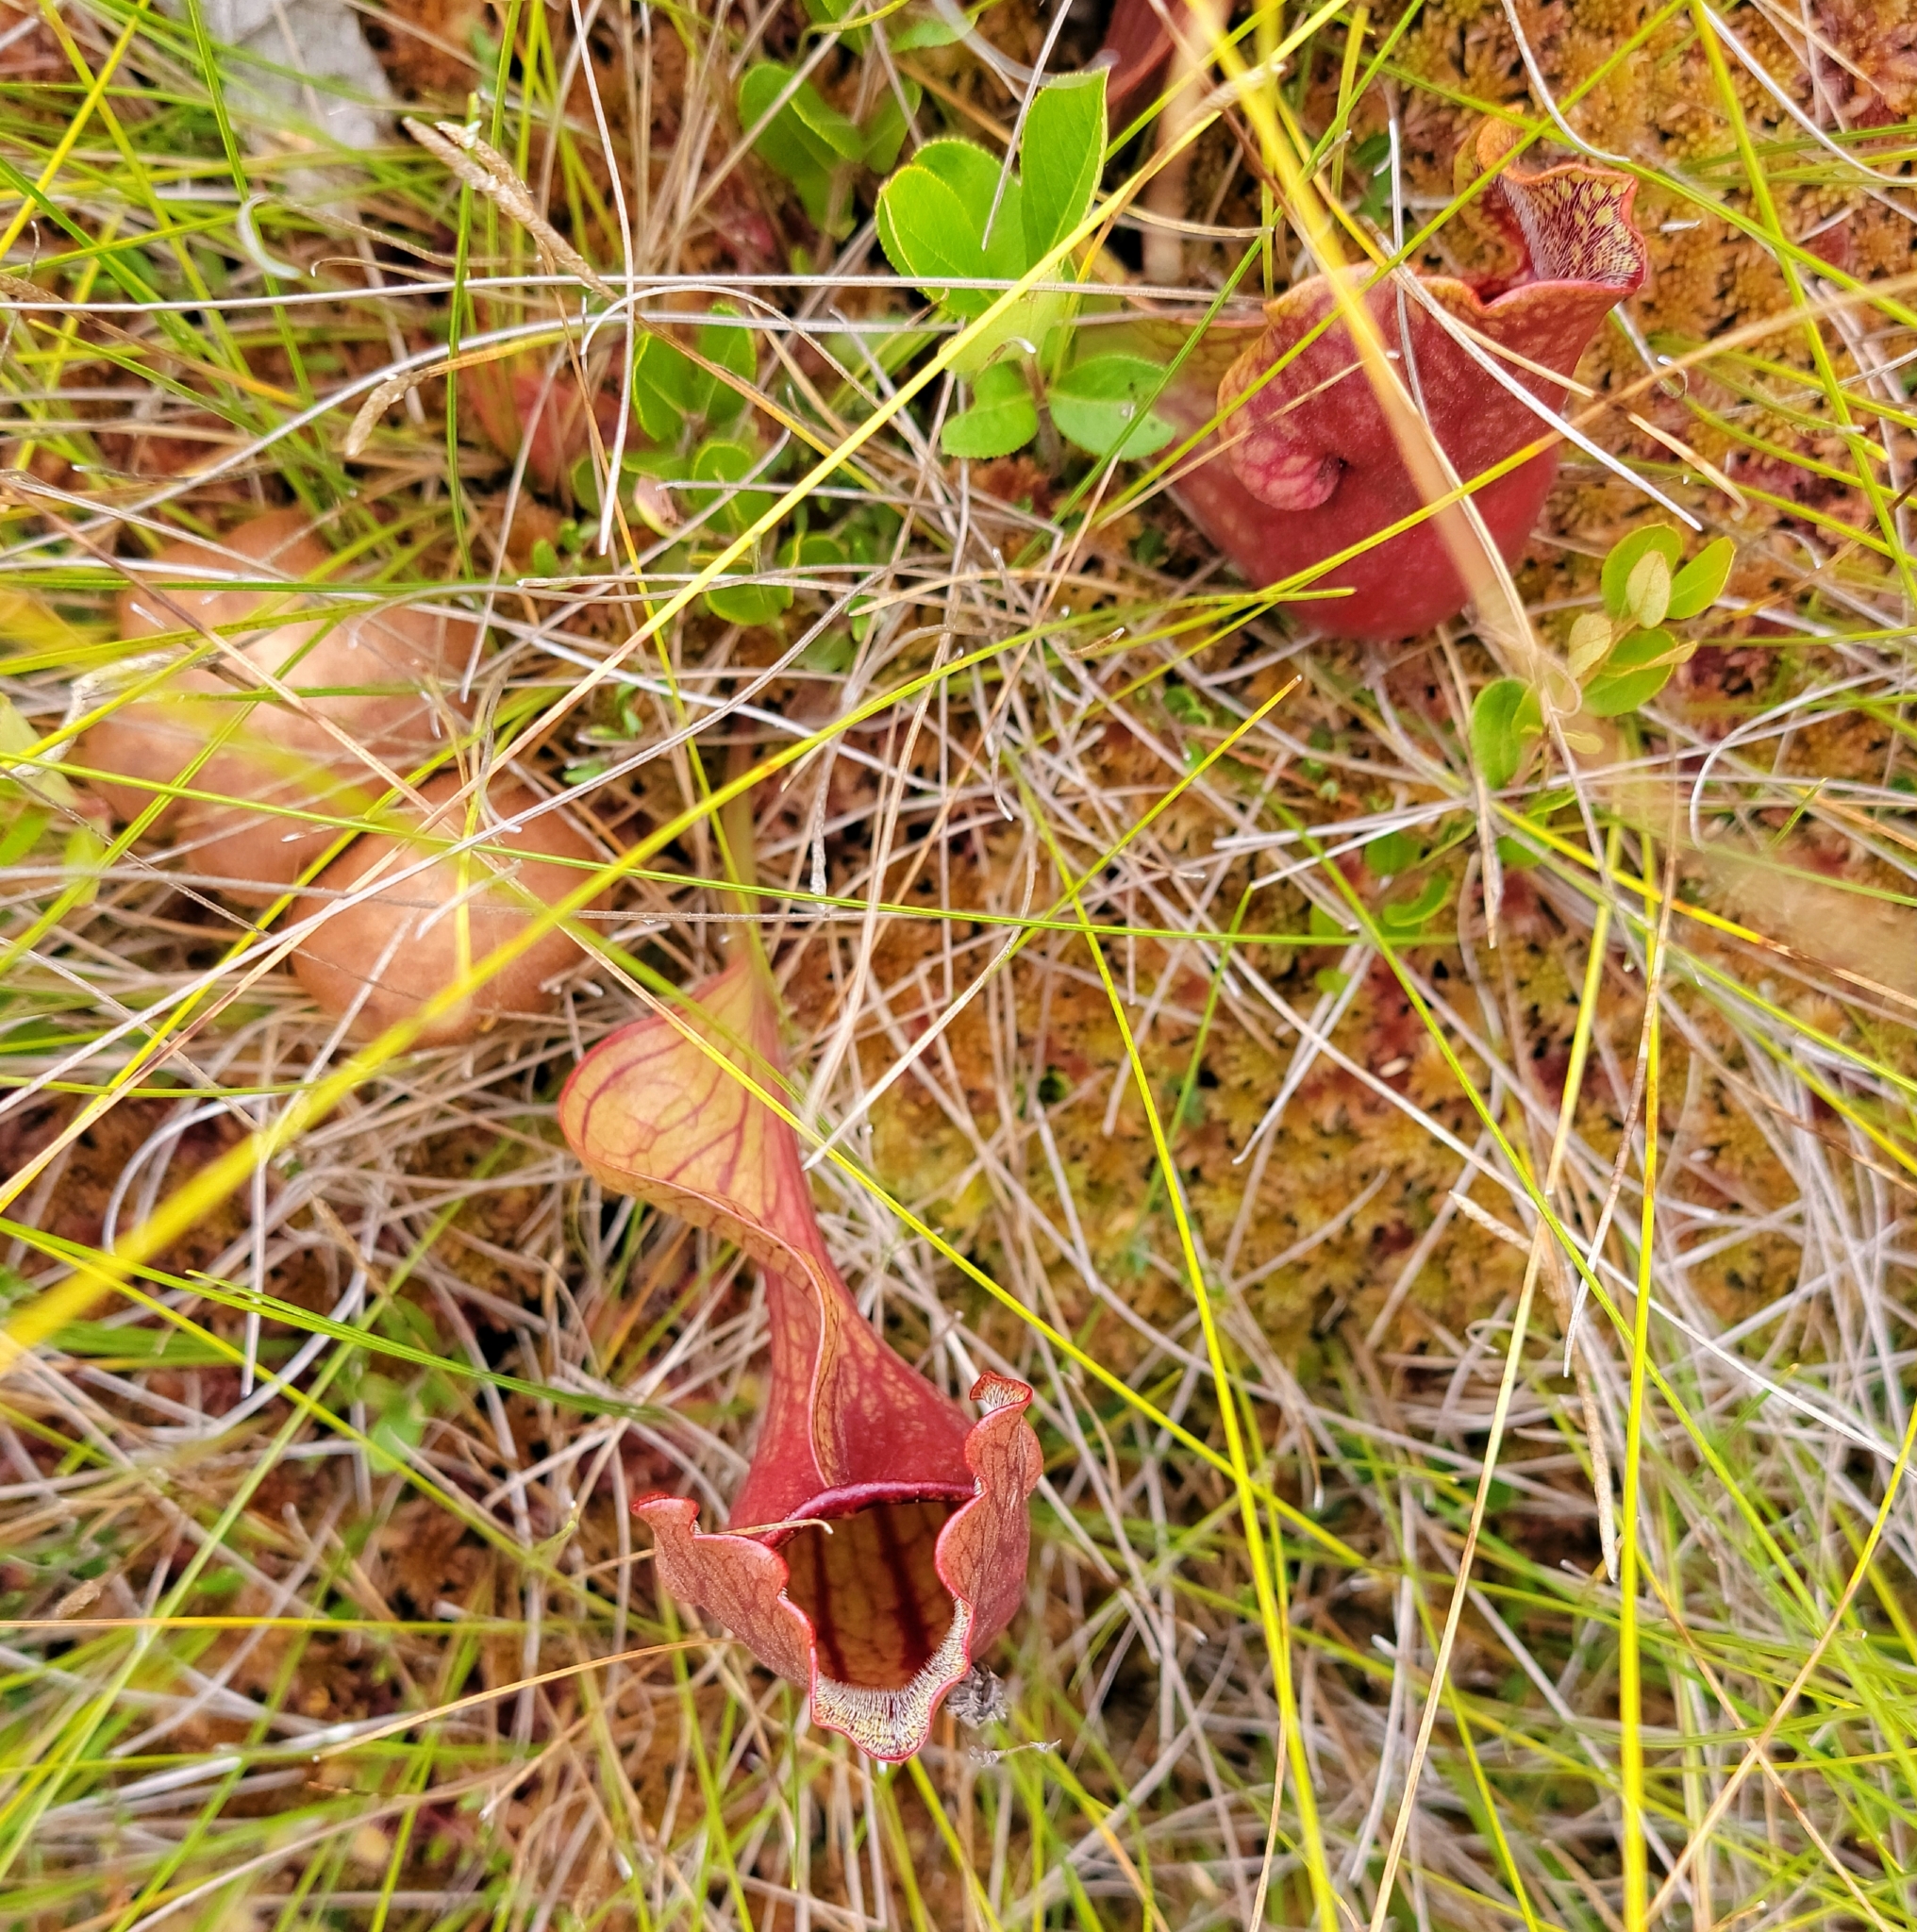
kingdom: Plantae
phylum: Tracheophyta
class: Magnoliopsida
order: Ericales
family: Sarraceniaceae
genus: Sarracenia
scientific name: Sarracenia purpurea
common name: Pitcherplant
